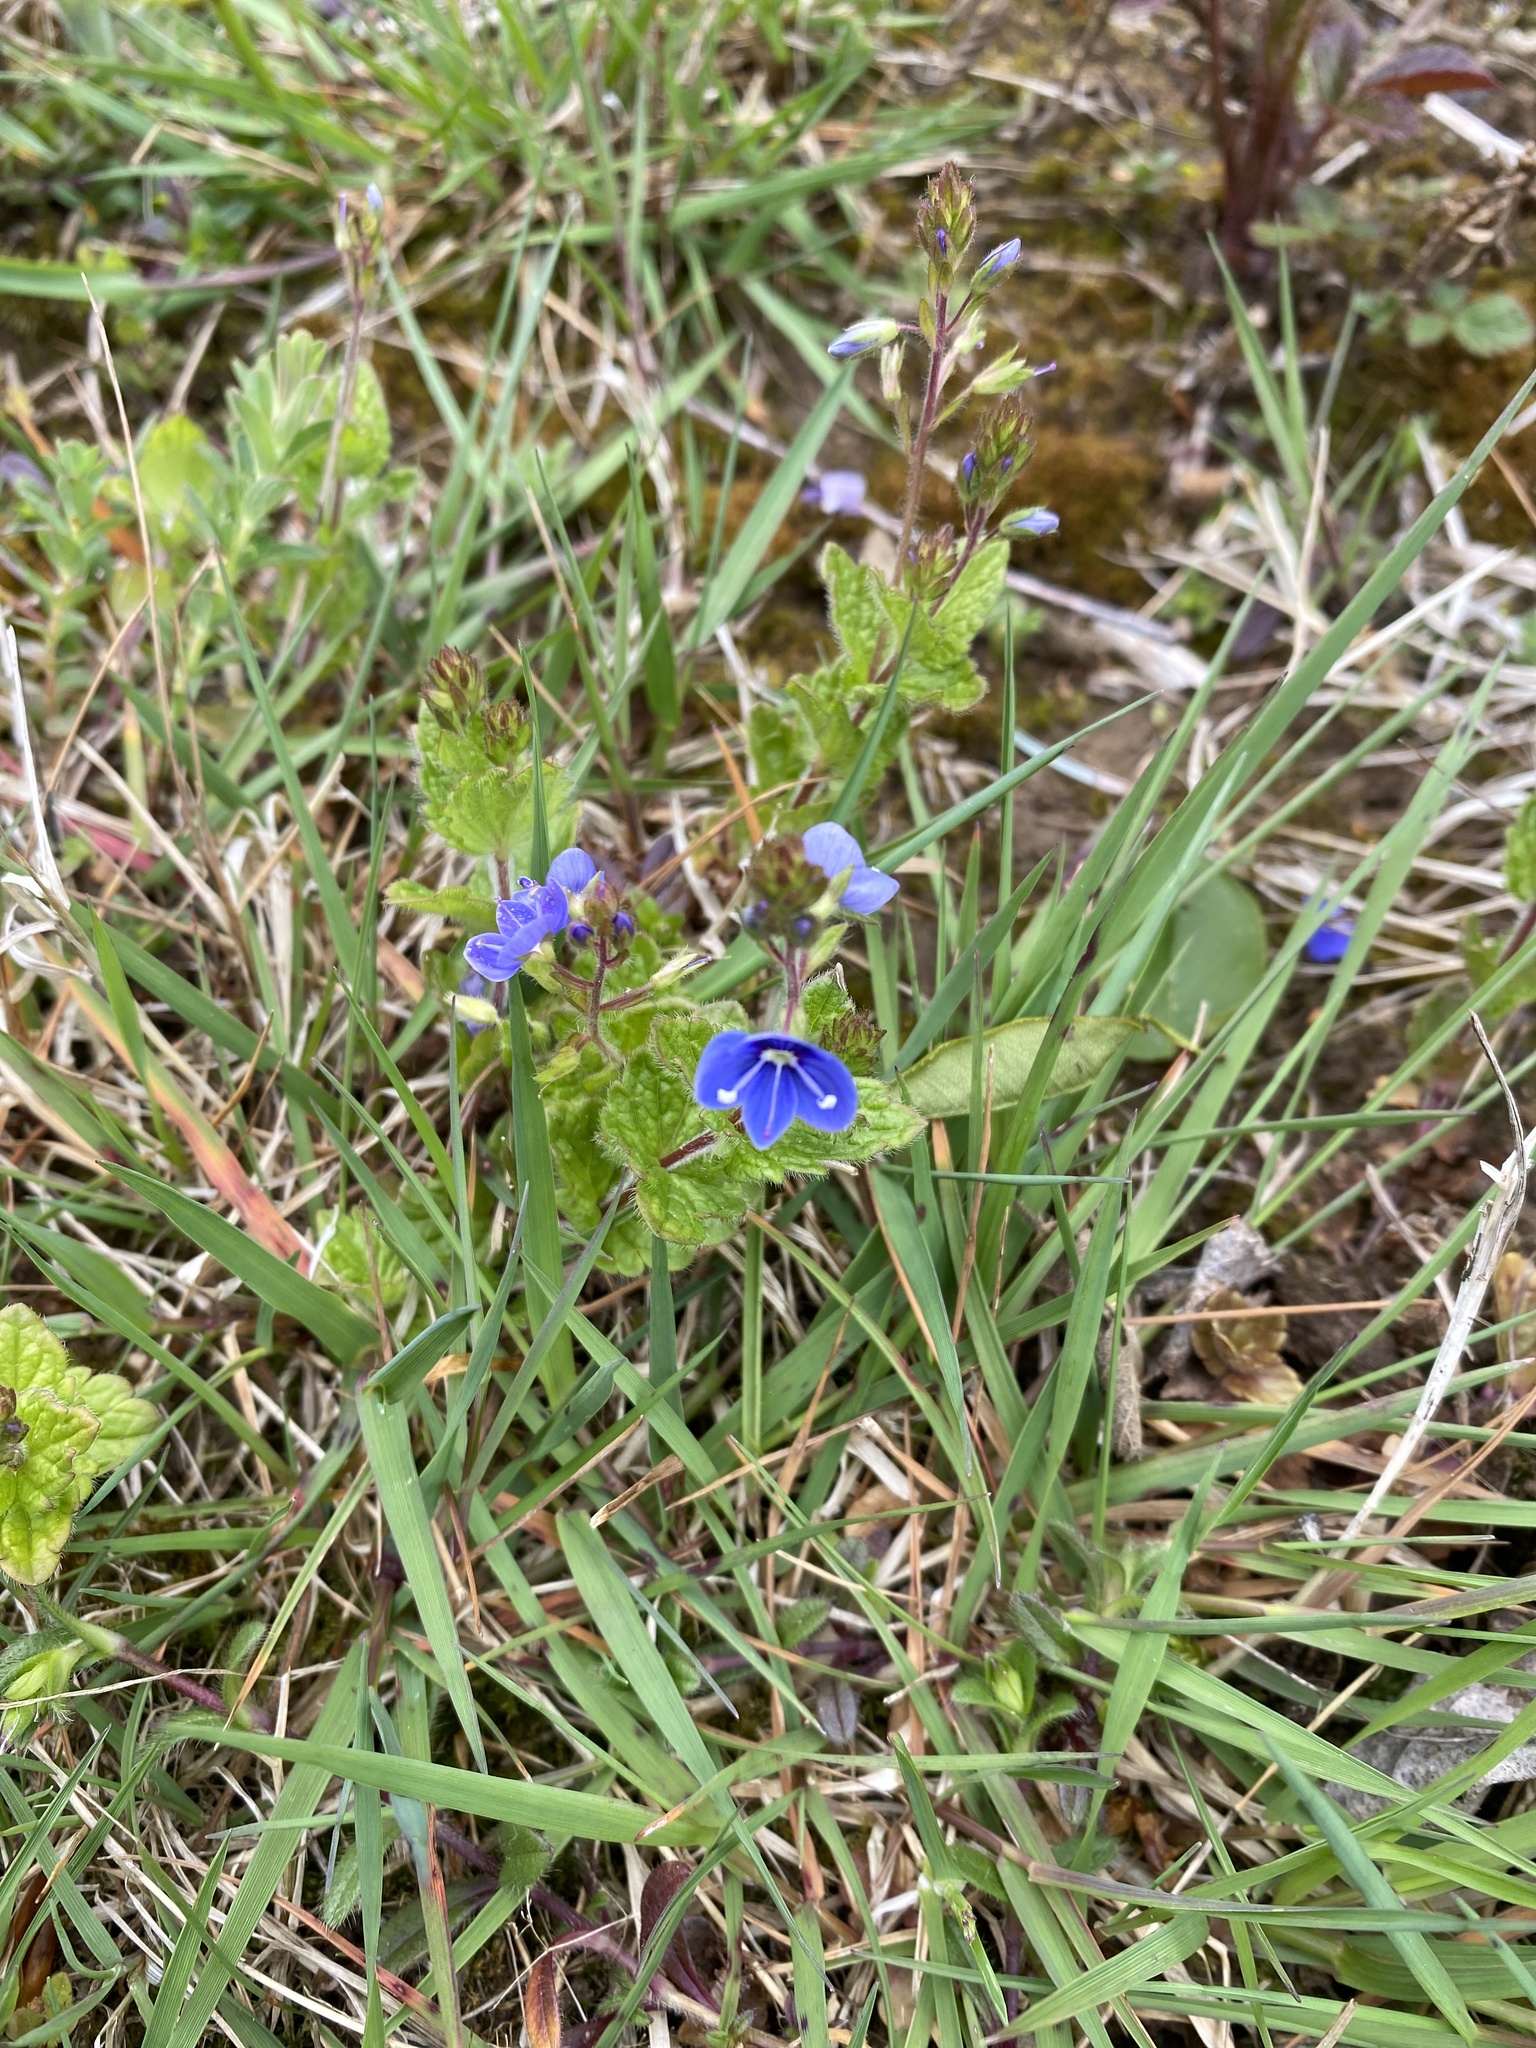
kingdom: Plantae
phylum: Tracheophyta
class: Magnoliopsida
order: Lamiales
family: Plantaginaceae
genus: Veronica
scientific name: Veronica chamaedrys
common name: Germander speedwell
